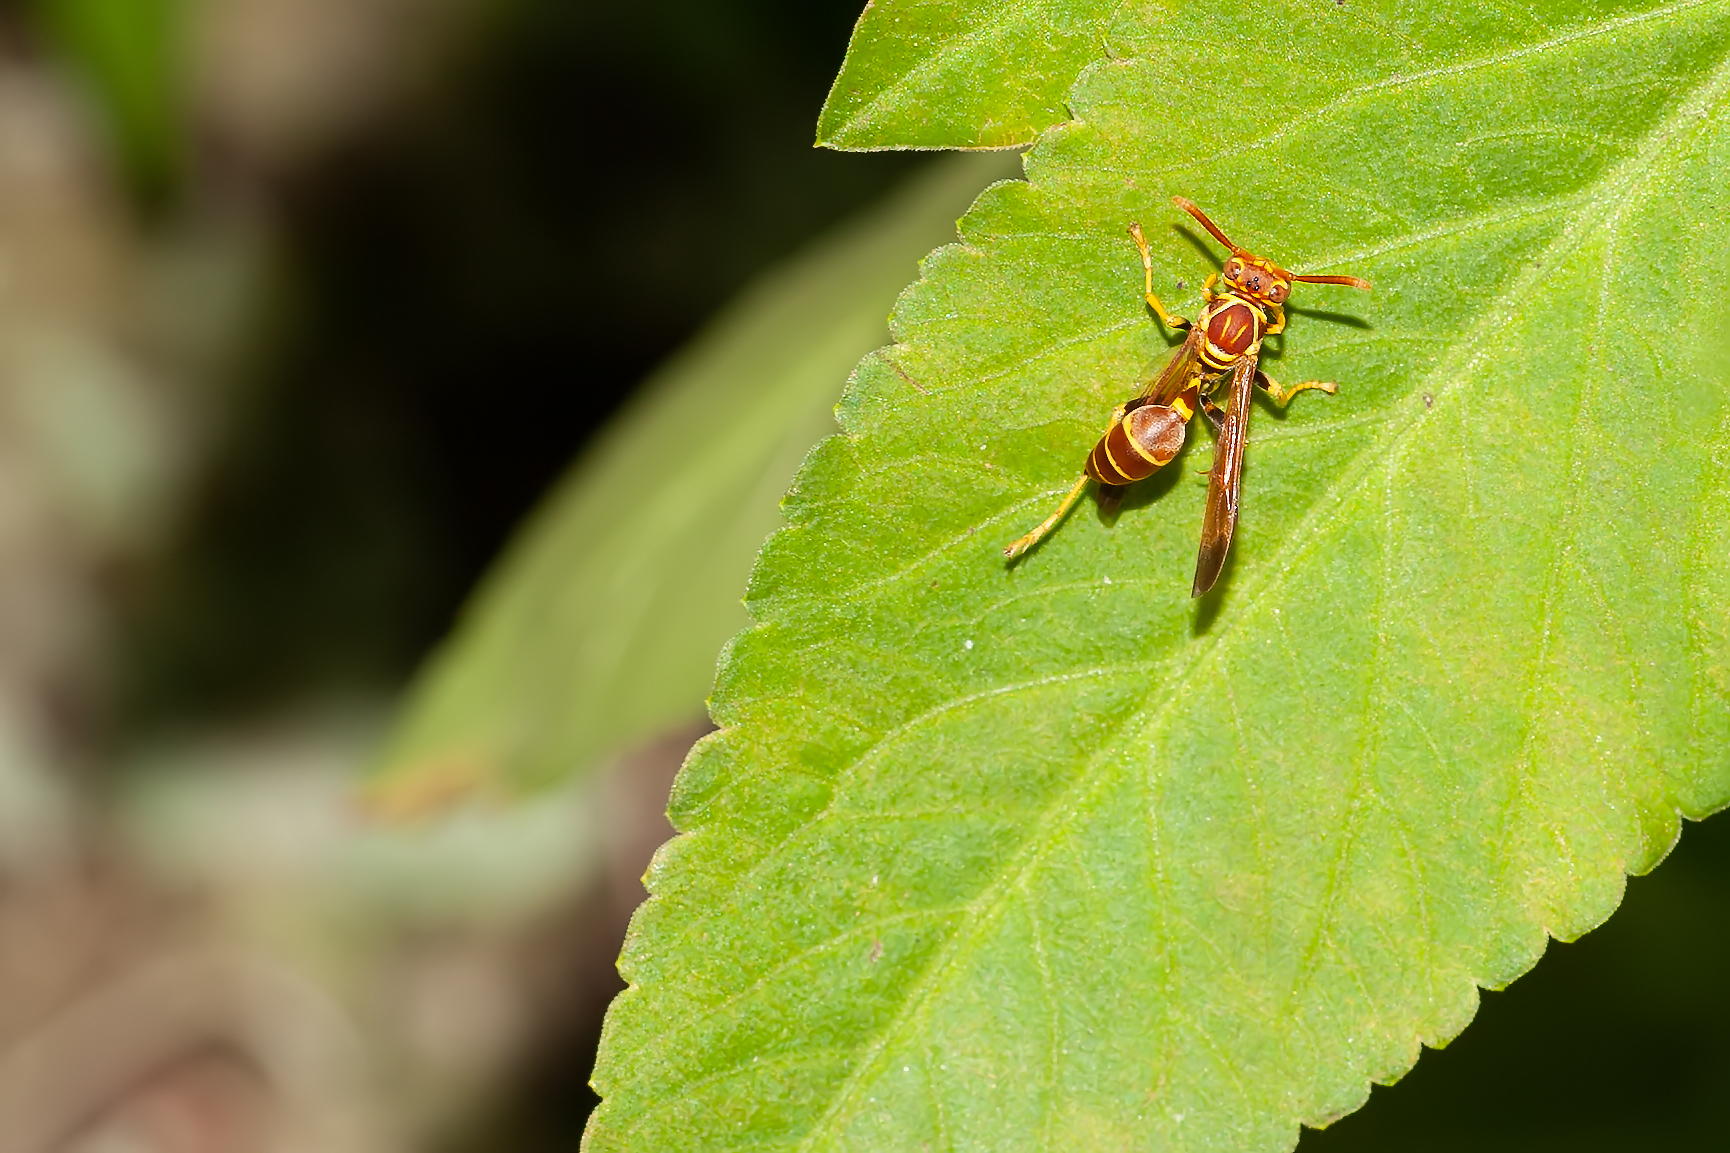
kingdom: Animalia
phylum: Arthropoda
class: Insecta
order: Hymenoptera
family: Vespidae
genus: Mischocyttarus
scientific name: Mischocyttarus mexicanus
